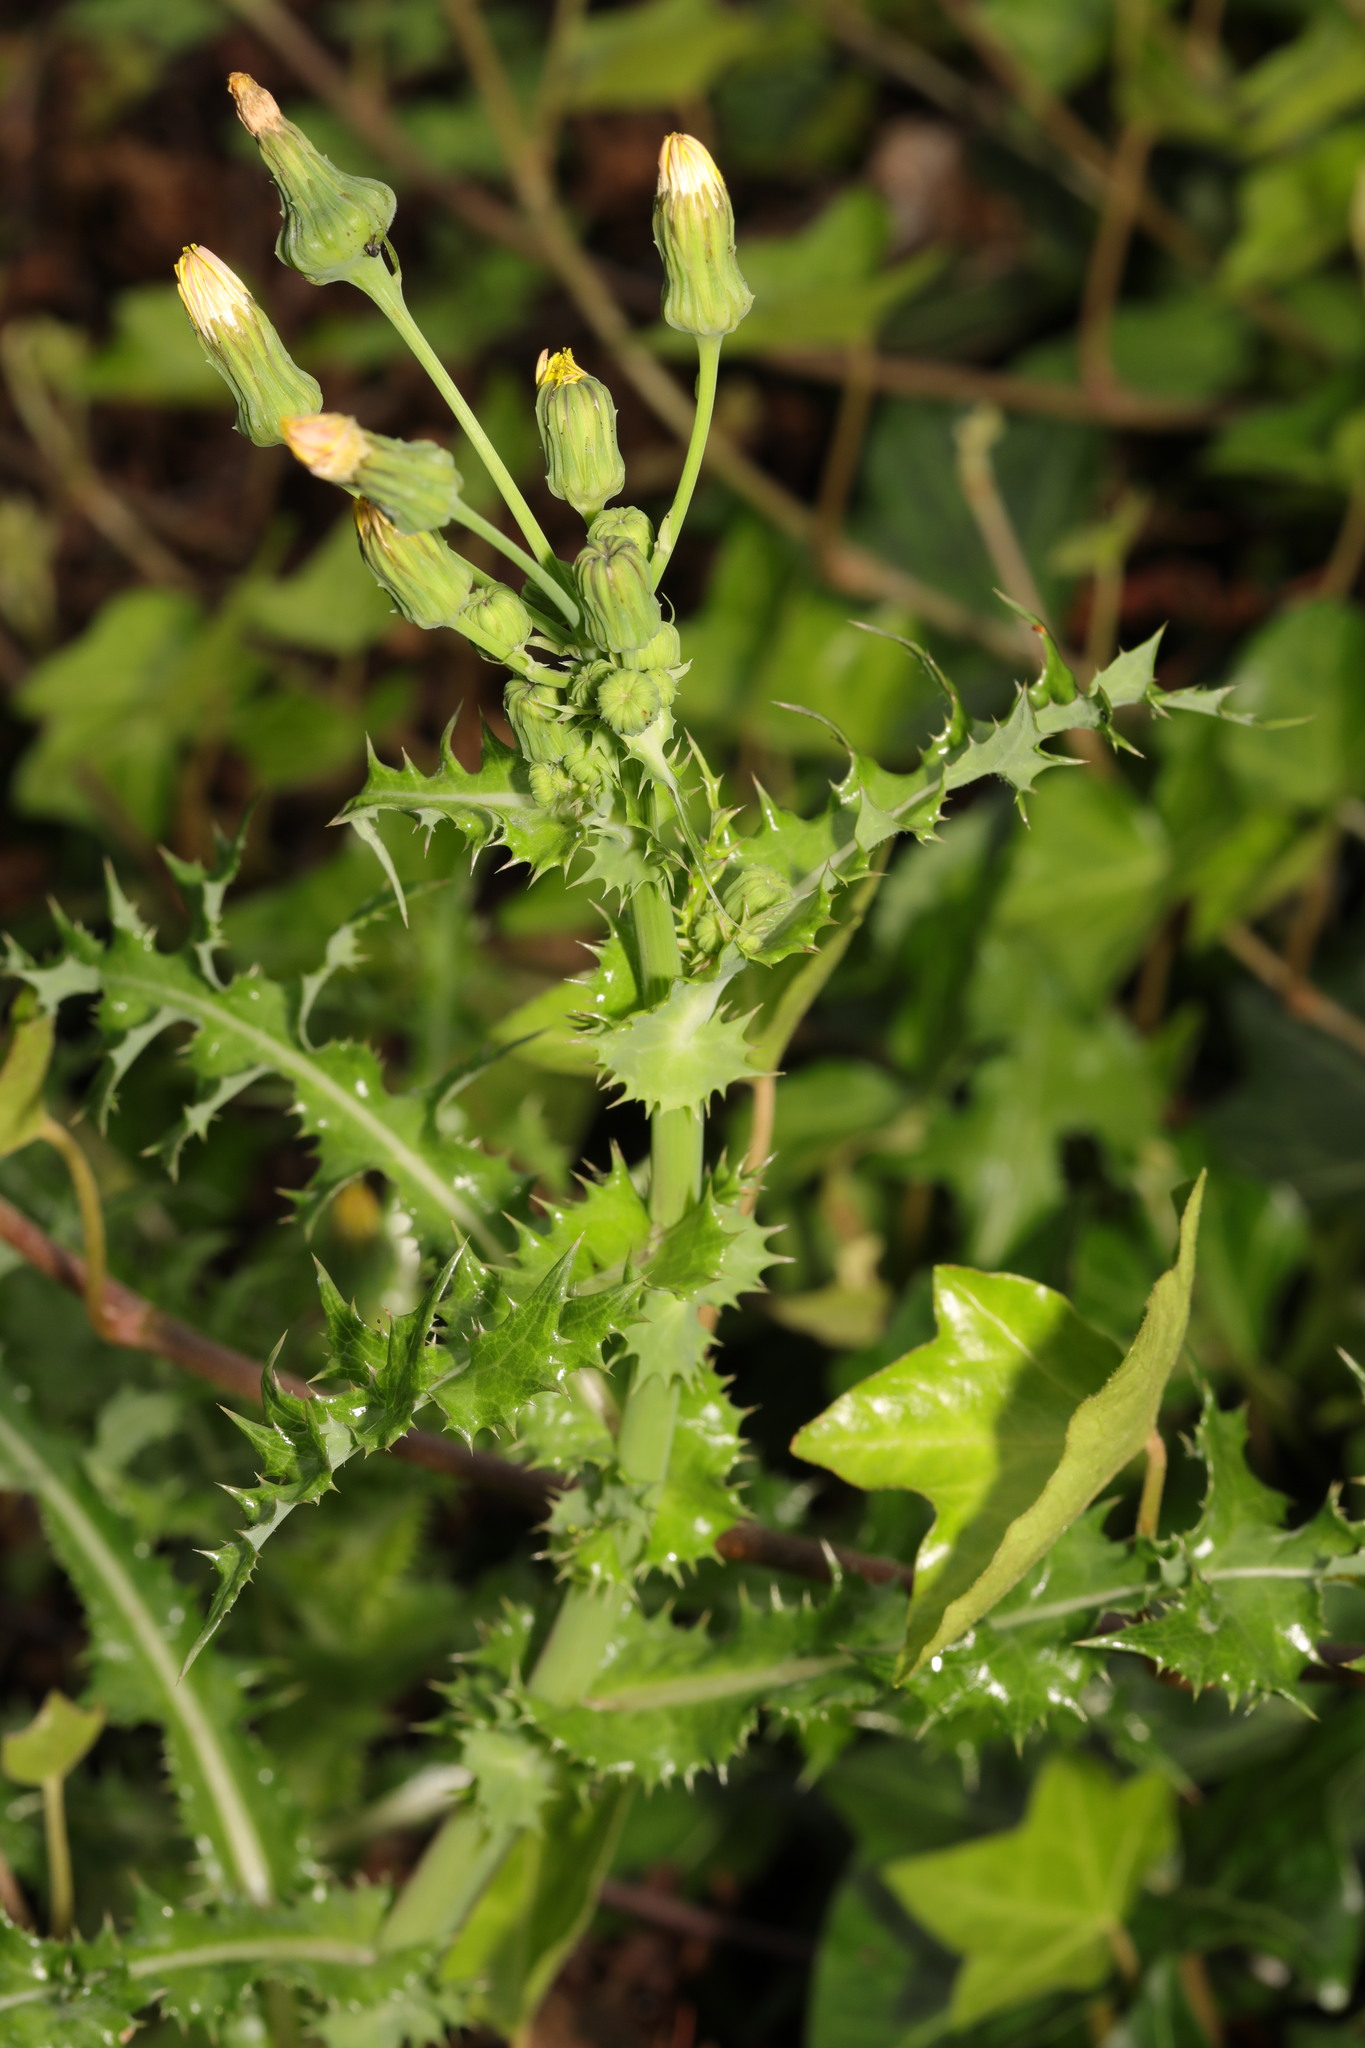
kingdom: Plantae
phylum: Tracheophyta
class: Magnoliopsida
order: Asterales
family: Asteraceae
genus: Sonchus
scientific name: Sonchus asper
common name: Prickly sow-thistle
